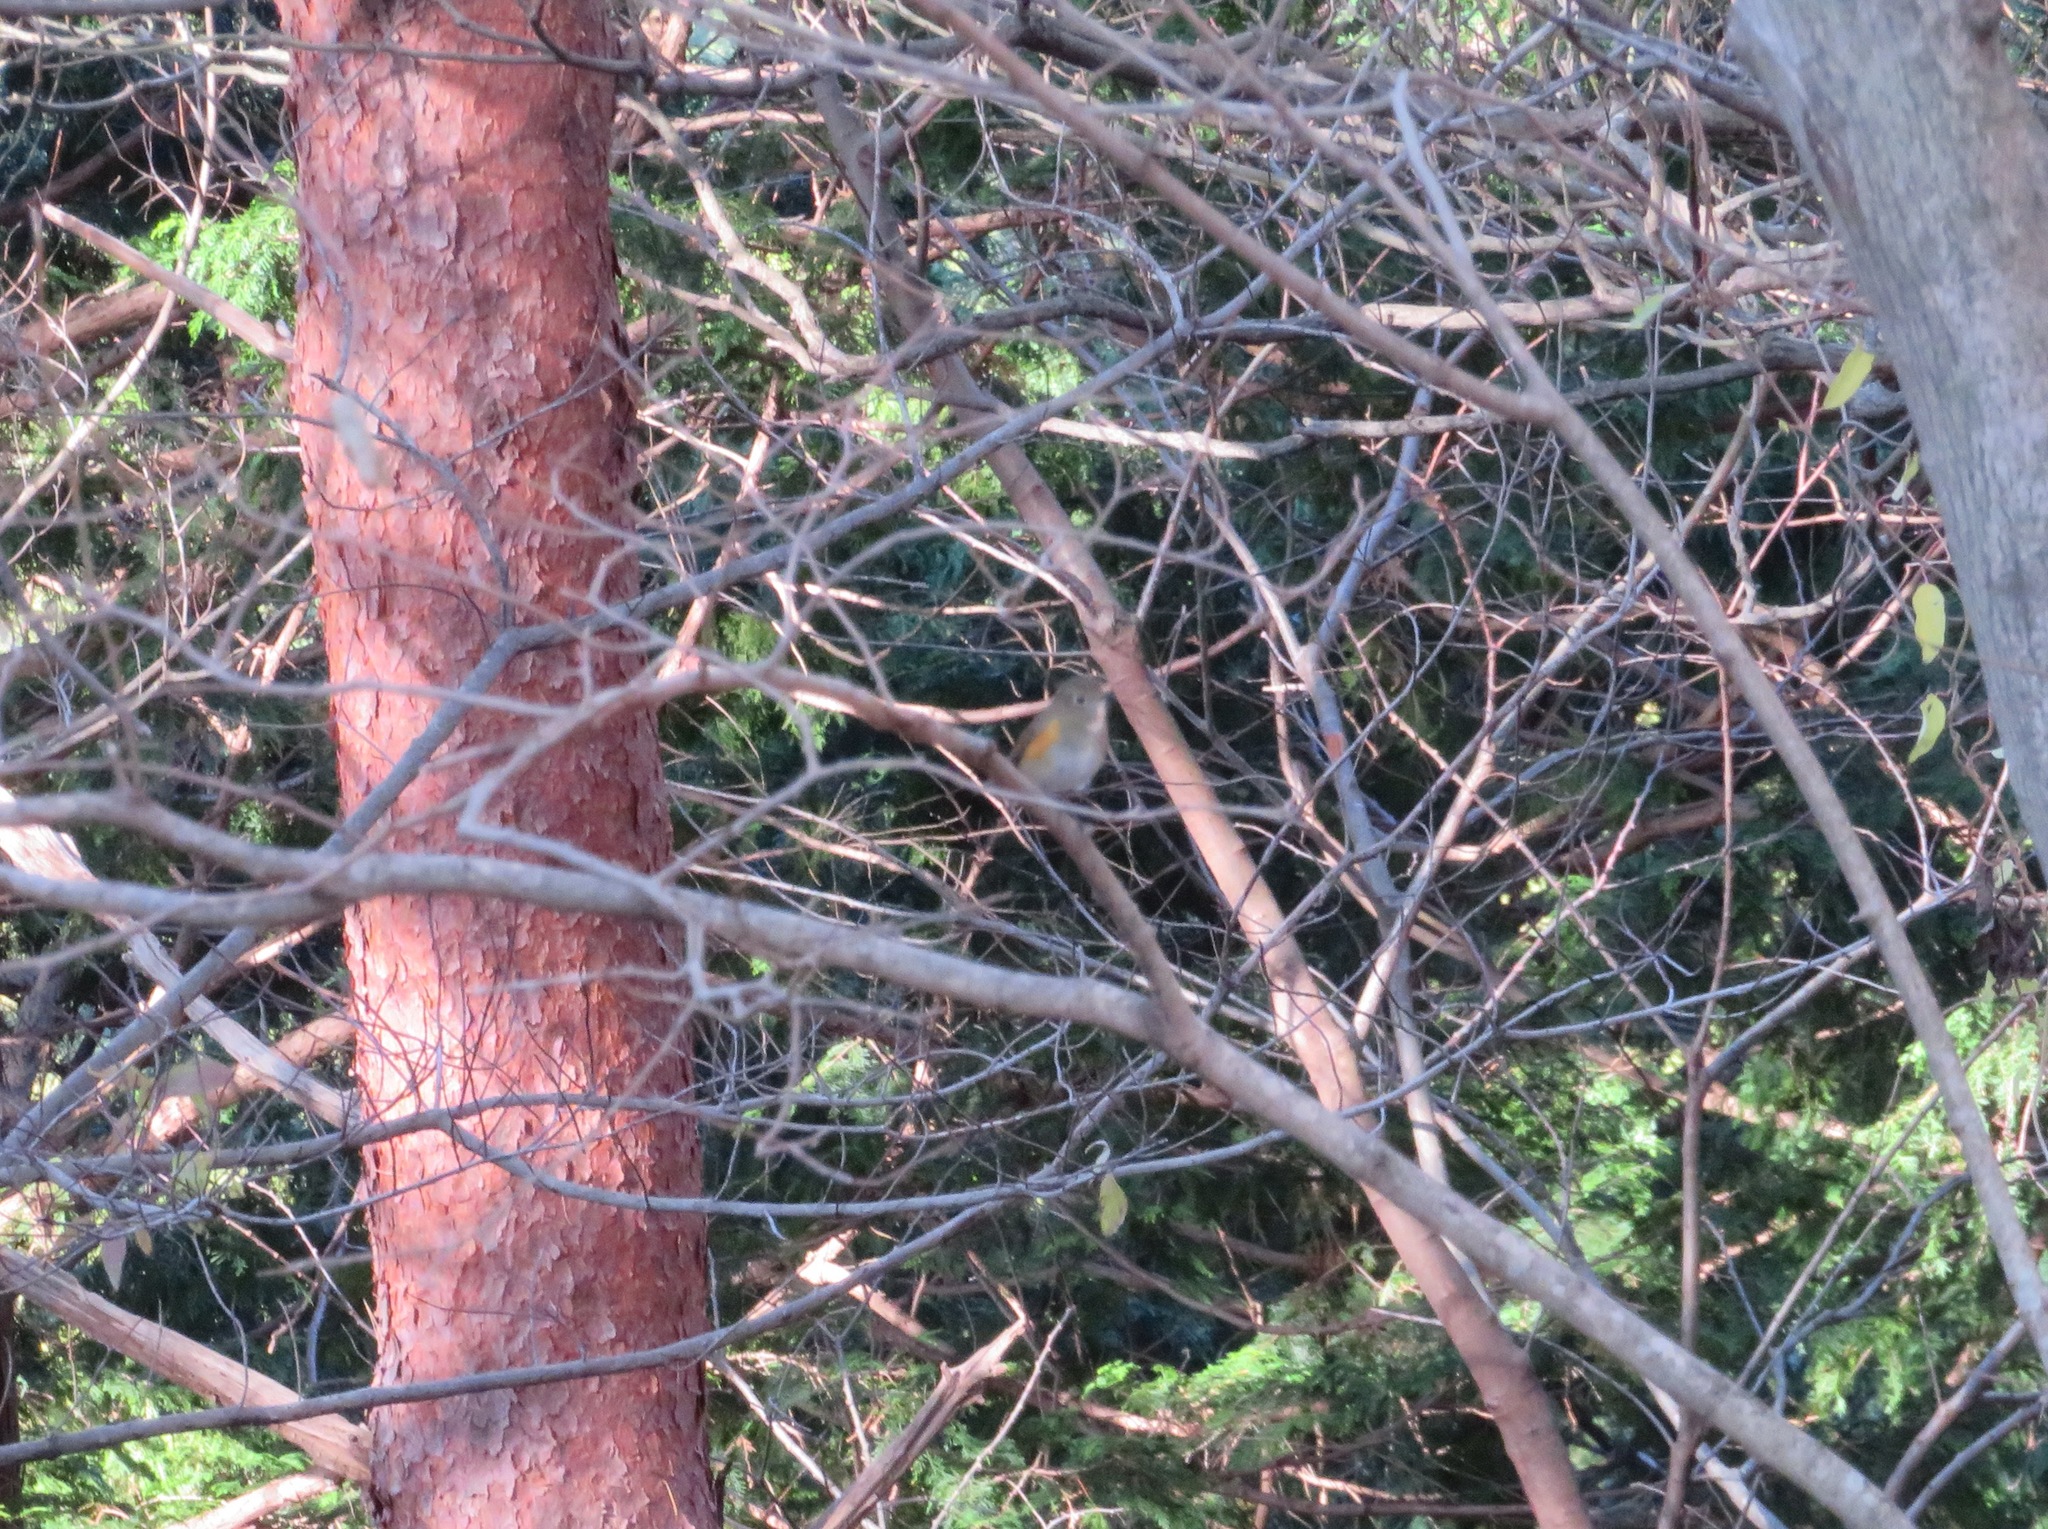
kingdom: Animalia
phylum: Chordata
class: Aves
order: Passeriformes
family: Muscicapidae
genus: Tarsiger
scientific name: Tarsiger cyanurus
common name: Red-flanked bluetail
